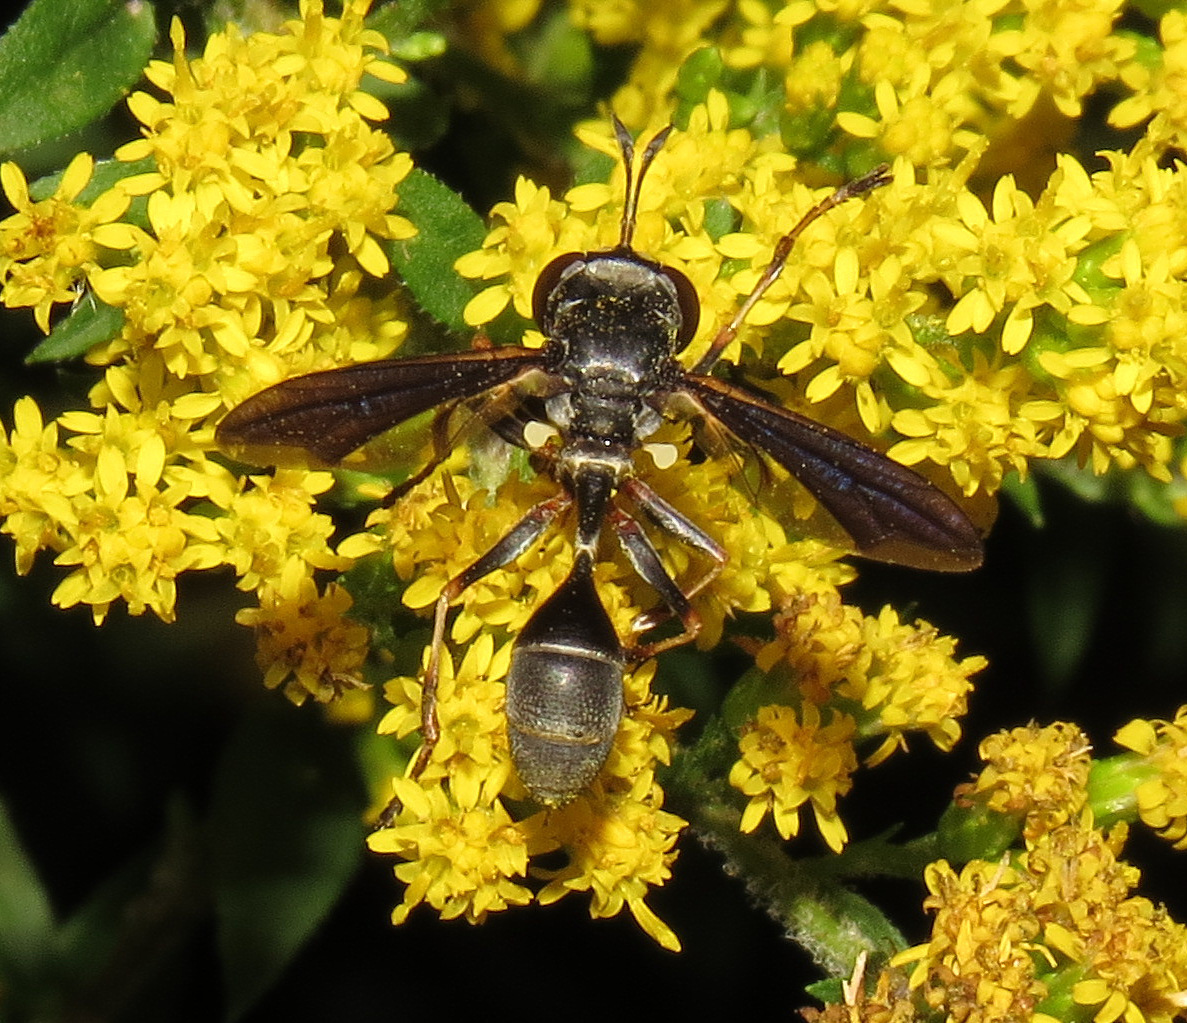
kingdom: Animalia
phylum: Arthropoda
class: Insecta
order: Diptera
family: Conopidae
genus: Physocephala
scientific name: Physocephala tibialis
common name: Common eastern physocephala
